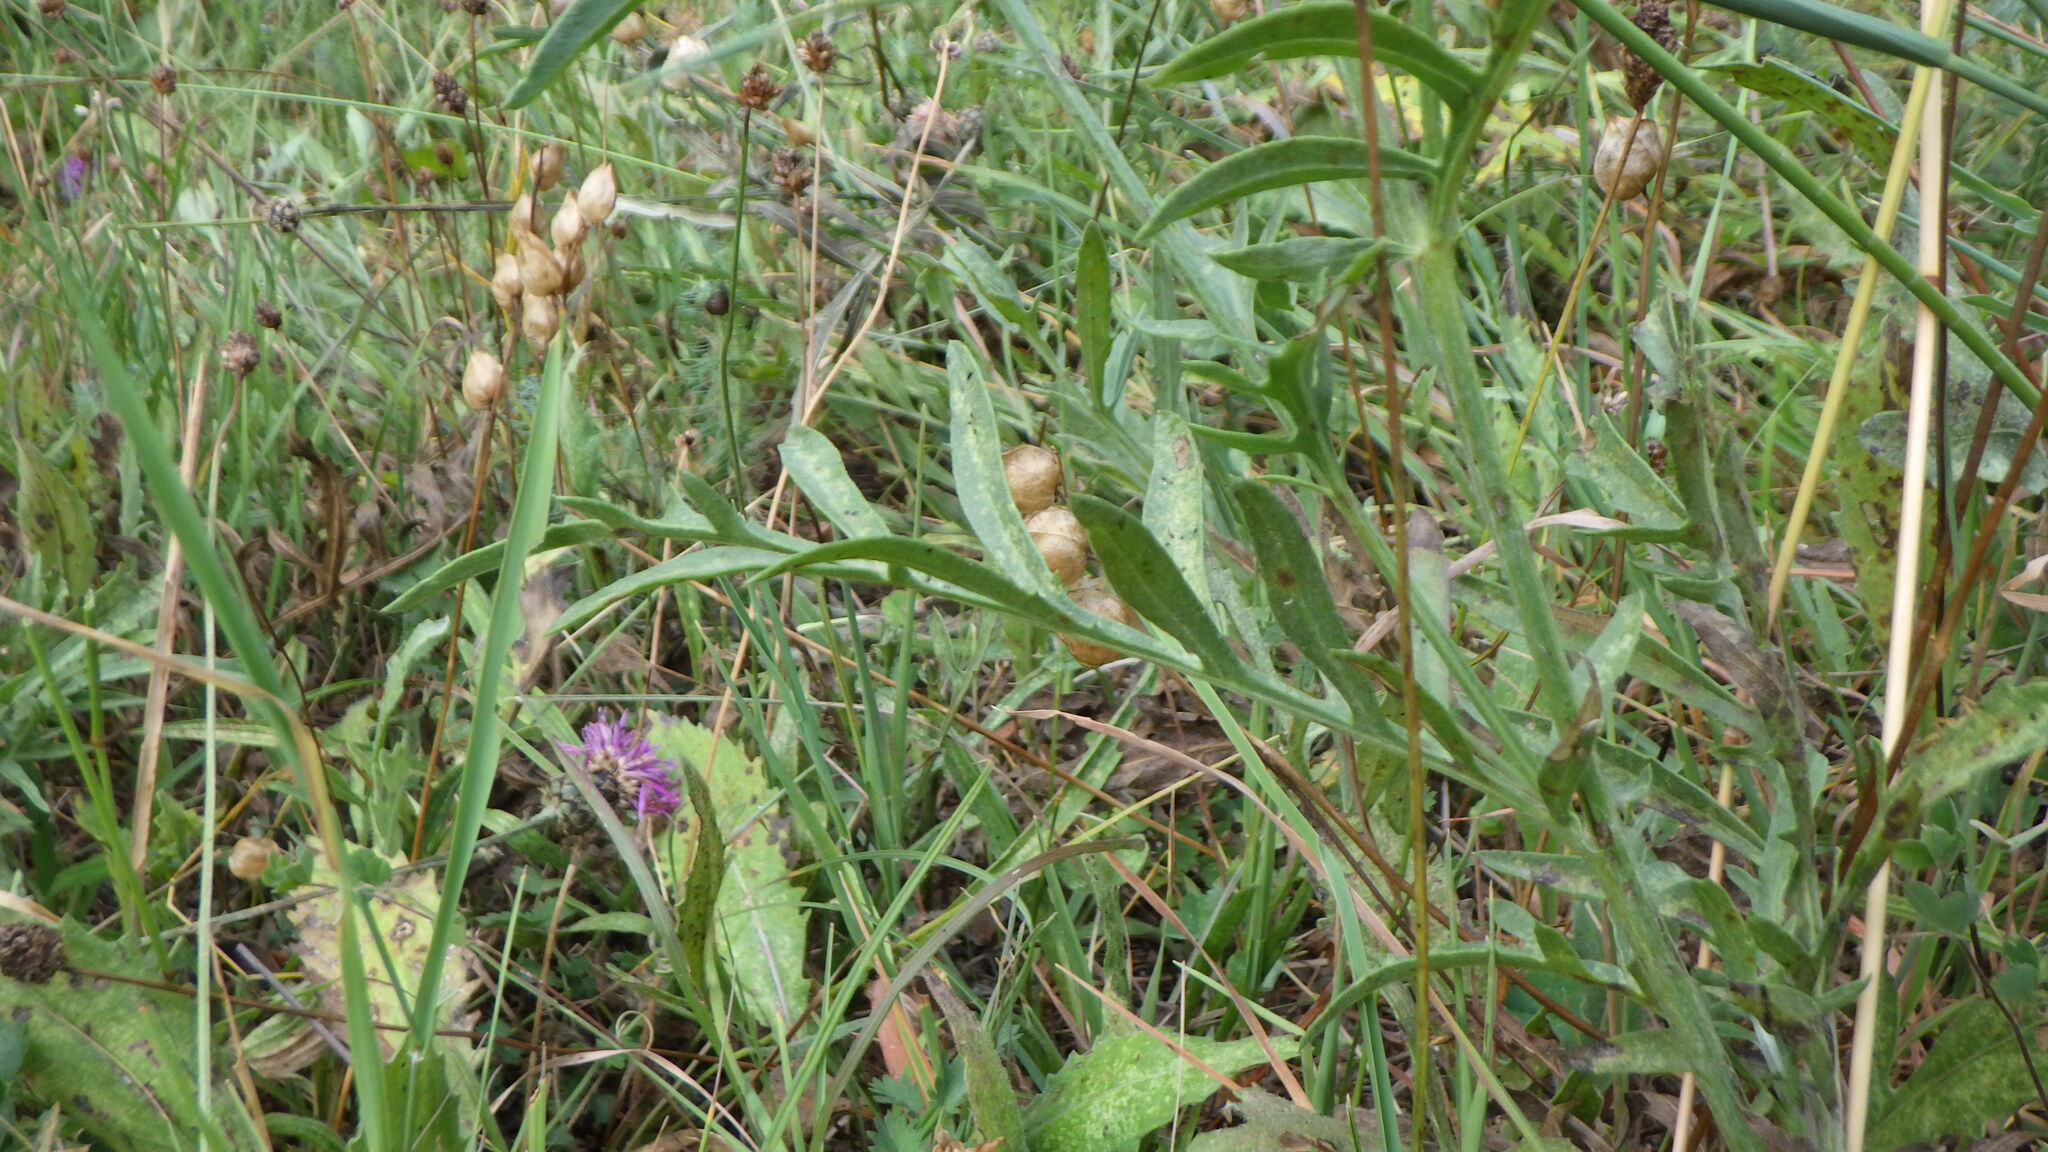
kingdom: Plantae
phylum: Tracheophyta
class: Magnoliopsida
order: Asterales
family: Asteraceae
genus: Centaurea
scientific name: Centaurea scabiosa
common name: Greater knapweed
